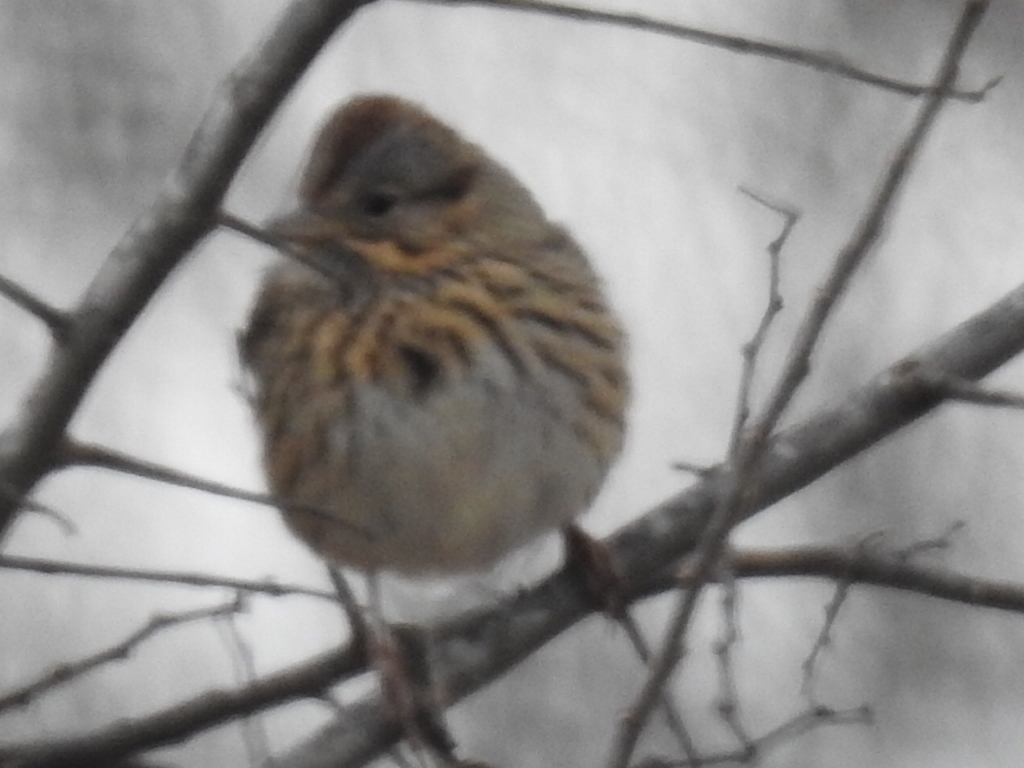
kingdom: Animalia
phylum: Chordata
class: Aves
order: Passeriformes
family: Passerellidae
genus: Melospiza
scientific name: Melospiza lincolnii
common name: Lincoln's sparrow
